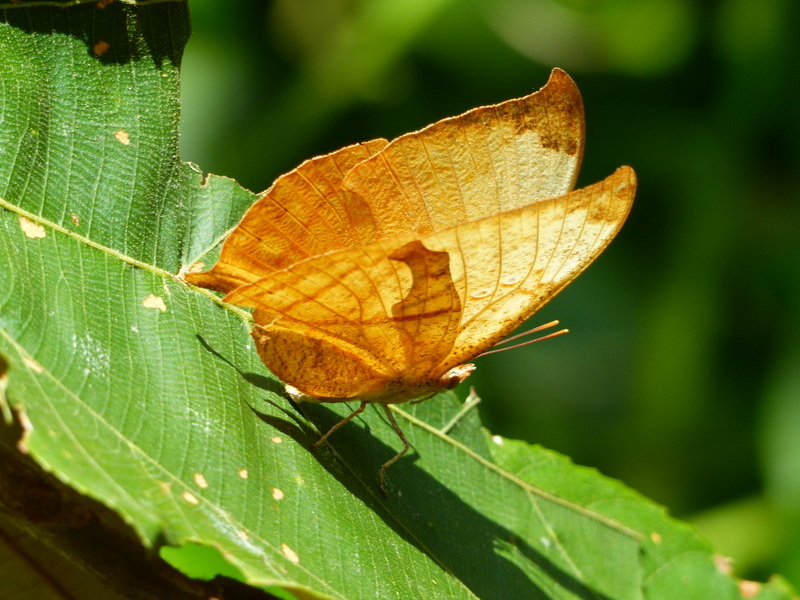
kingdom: Animalia
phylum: Arthropoda
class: Insecta
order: Lepidoptera
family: Nymphalidae
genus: Zaretis
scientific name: Zaretis itys
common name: Skeletonized leafwing
